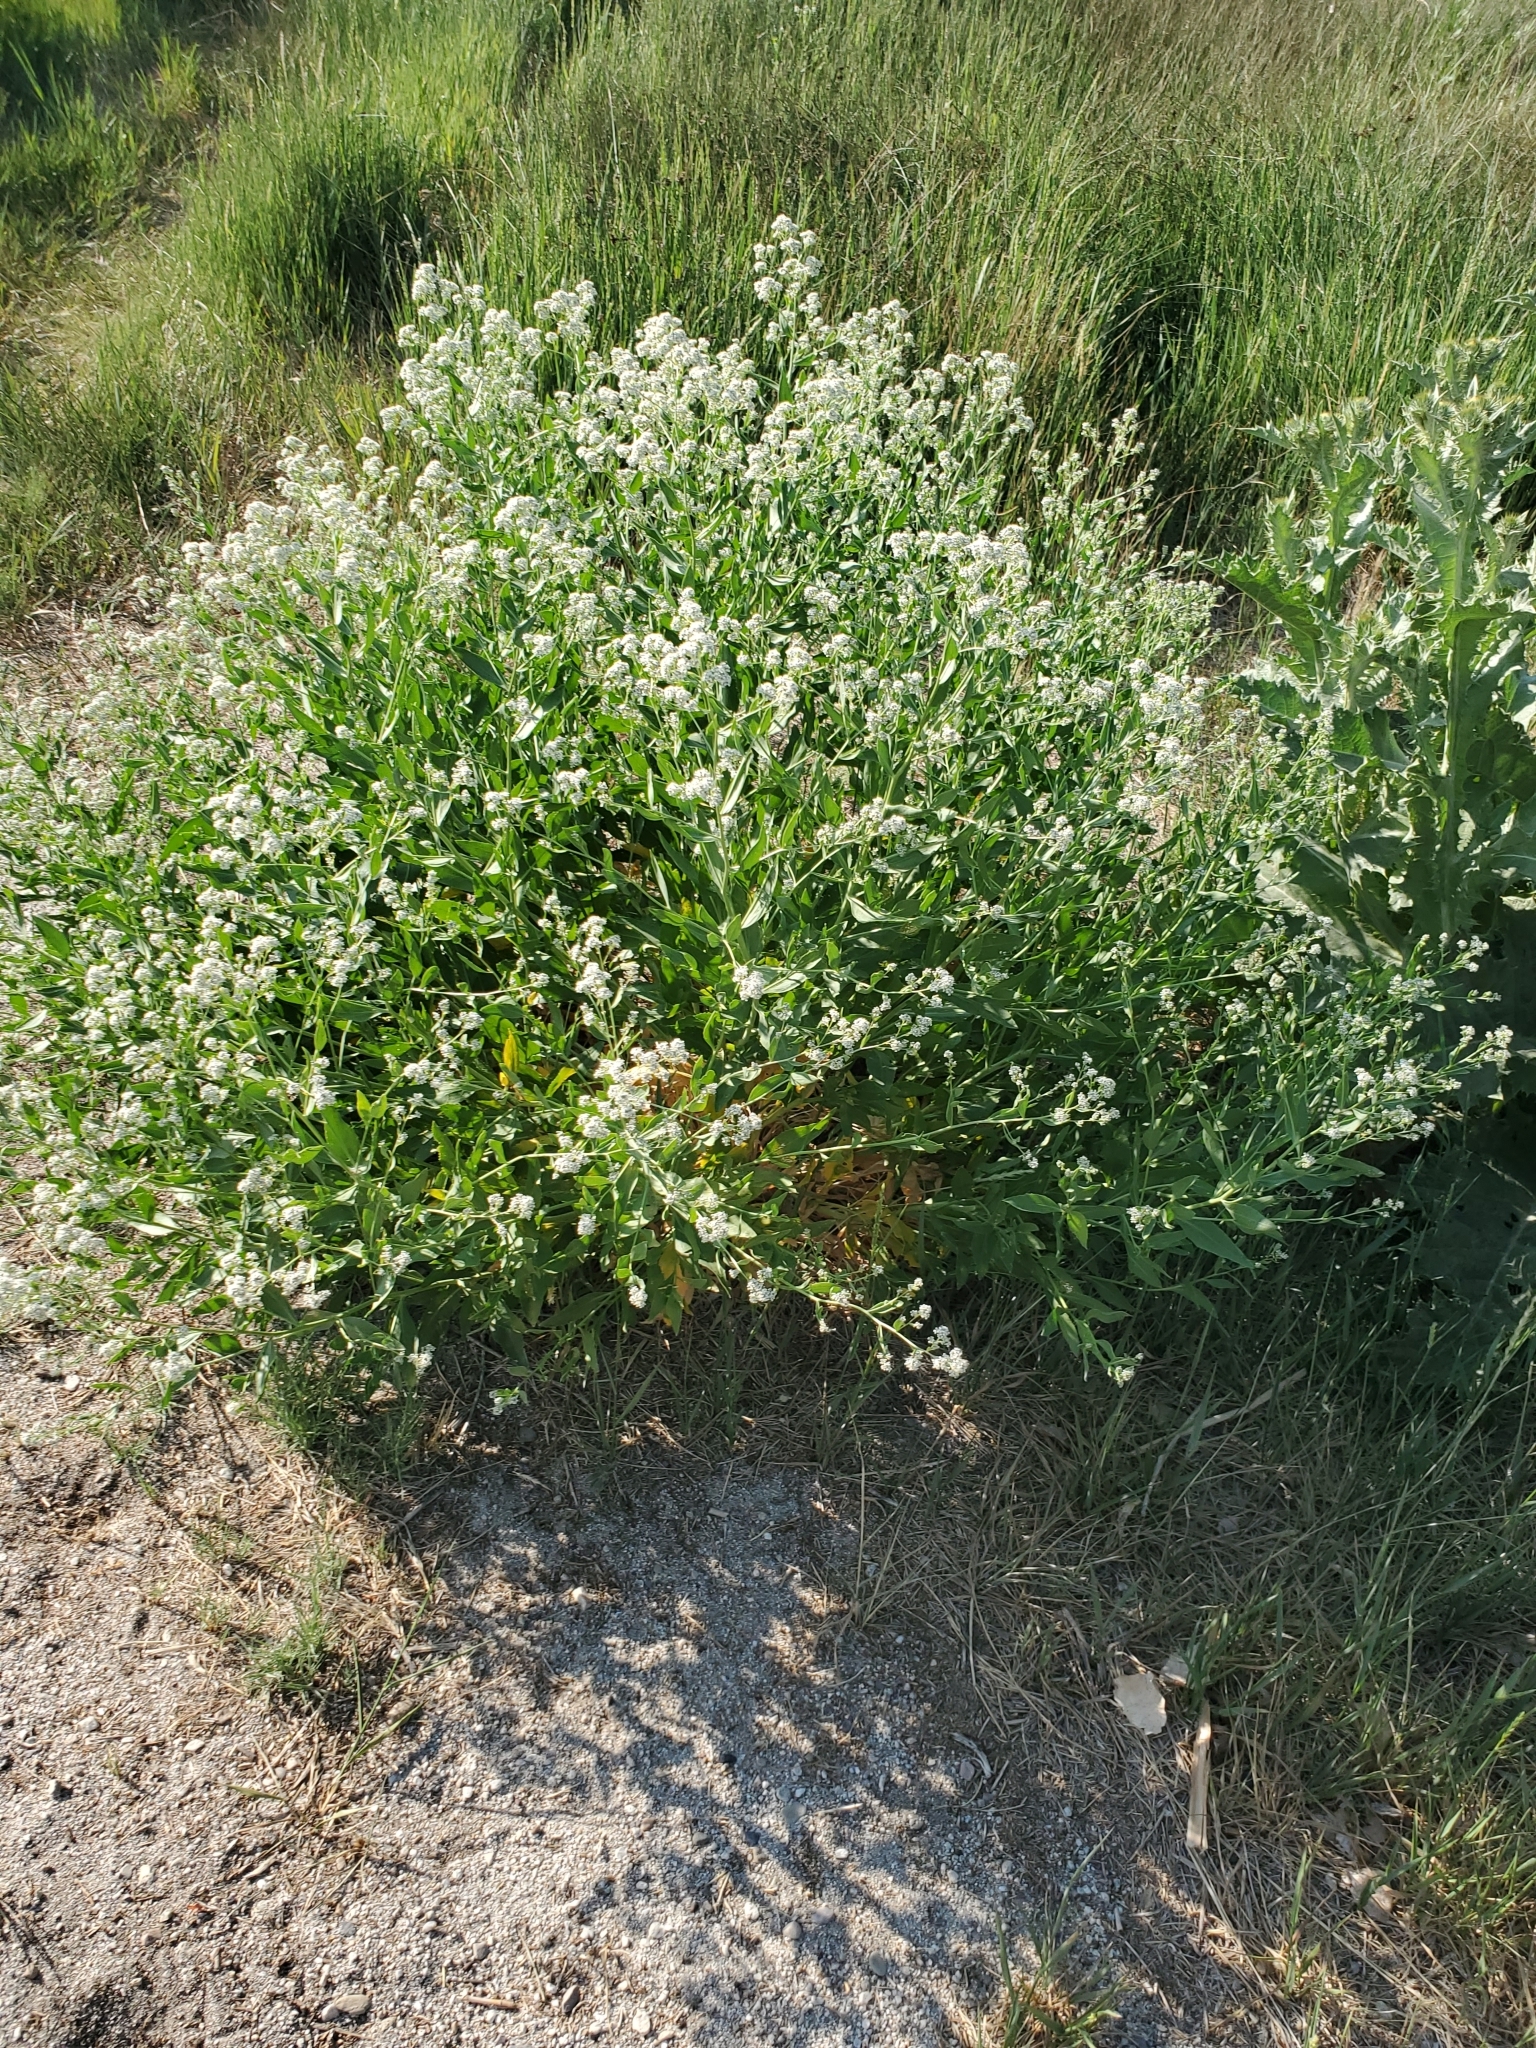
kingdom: Plantae
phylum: Tracheophyta
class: Magnoliopsida
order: Brassicales
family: Brassicaceae
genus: Lepidium
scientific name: Lepidium latifolium
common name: Dittander
